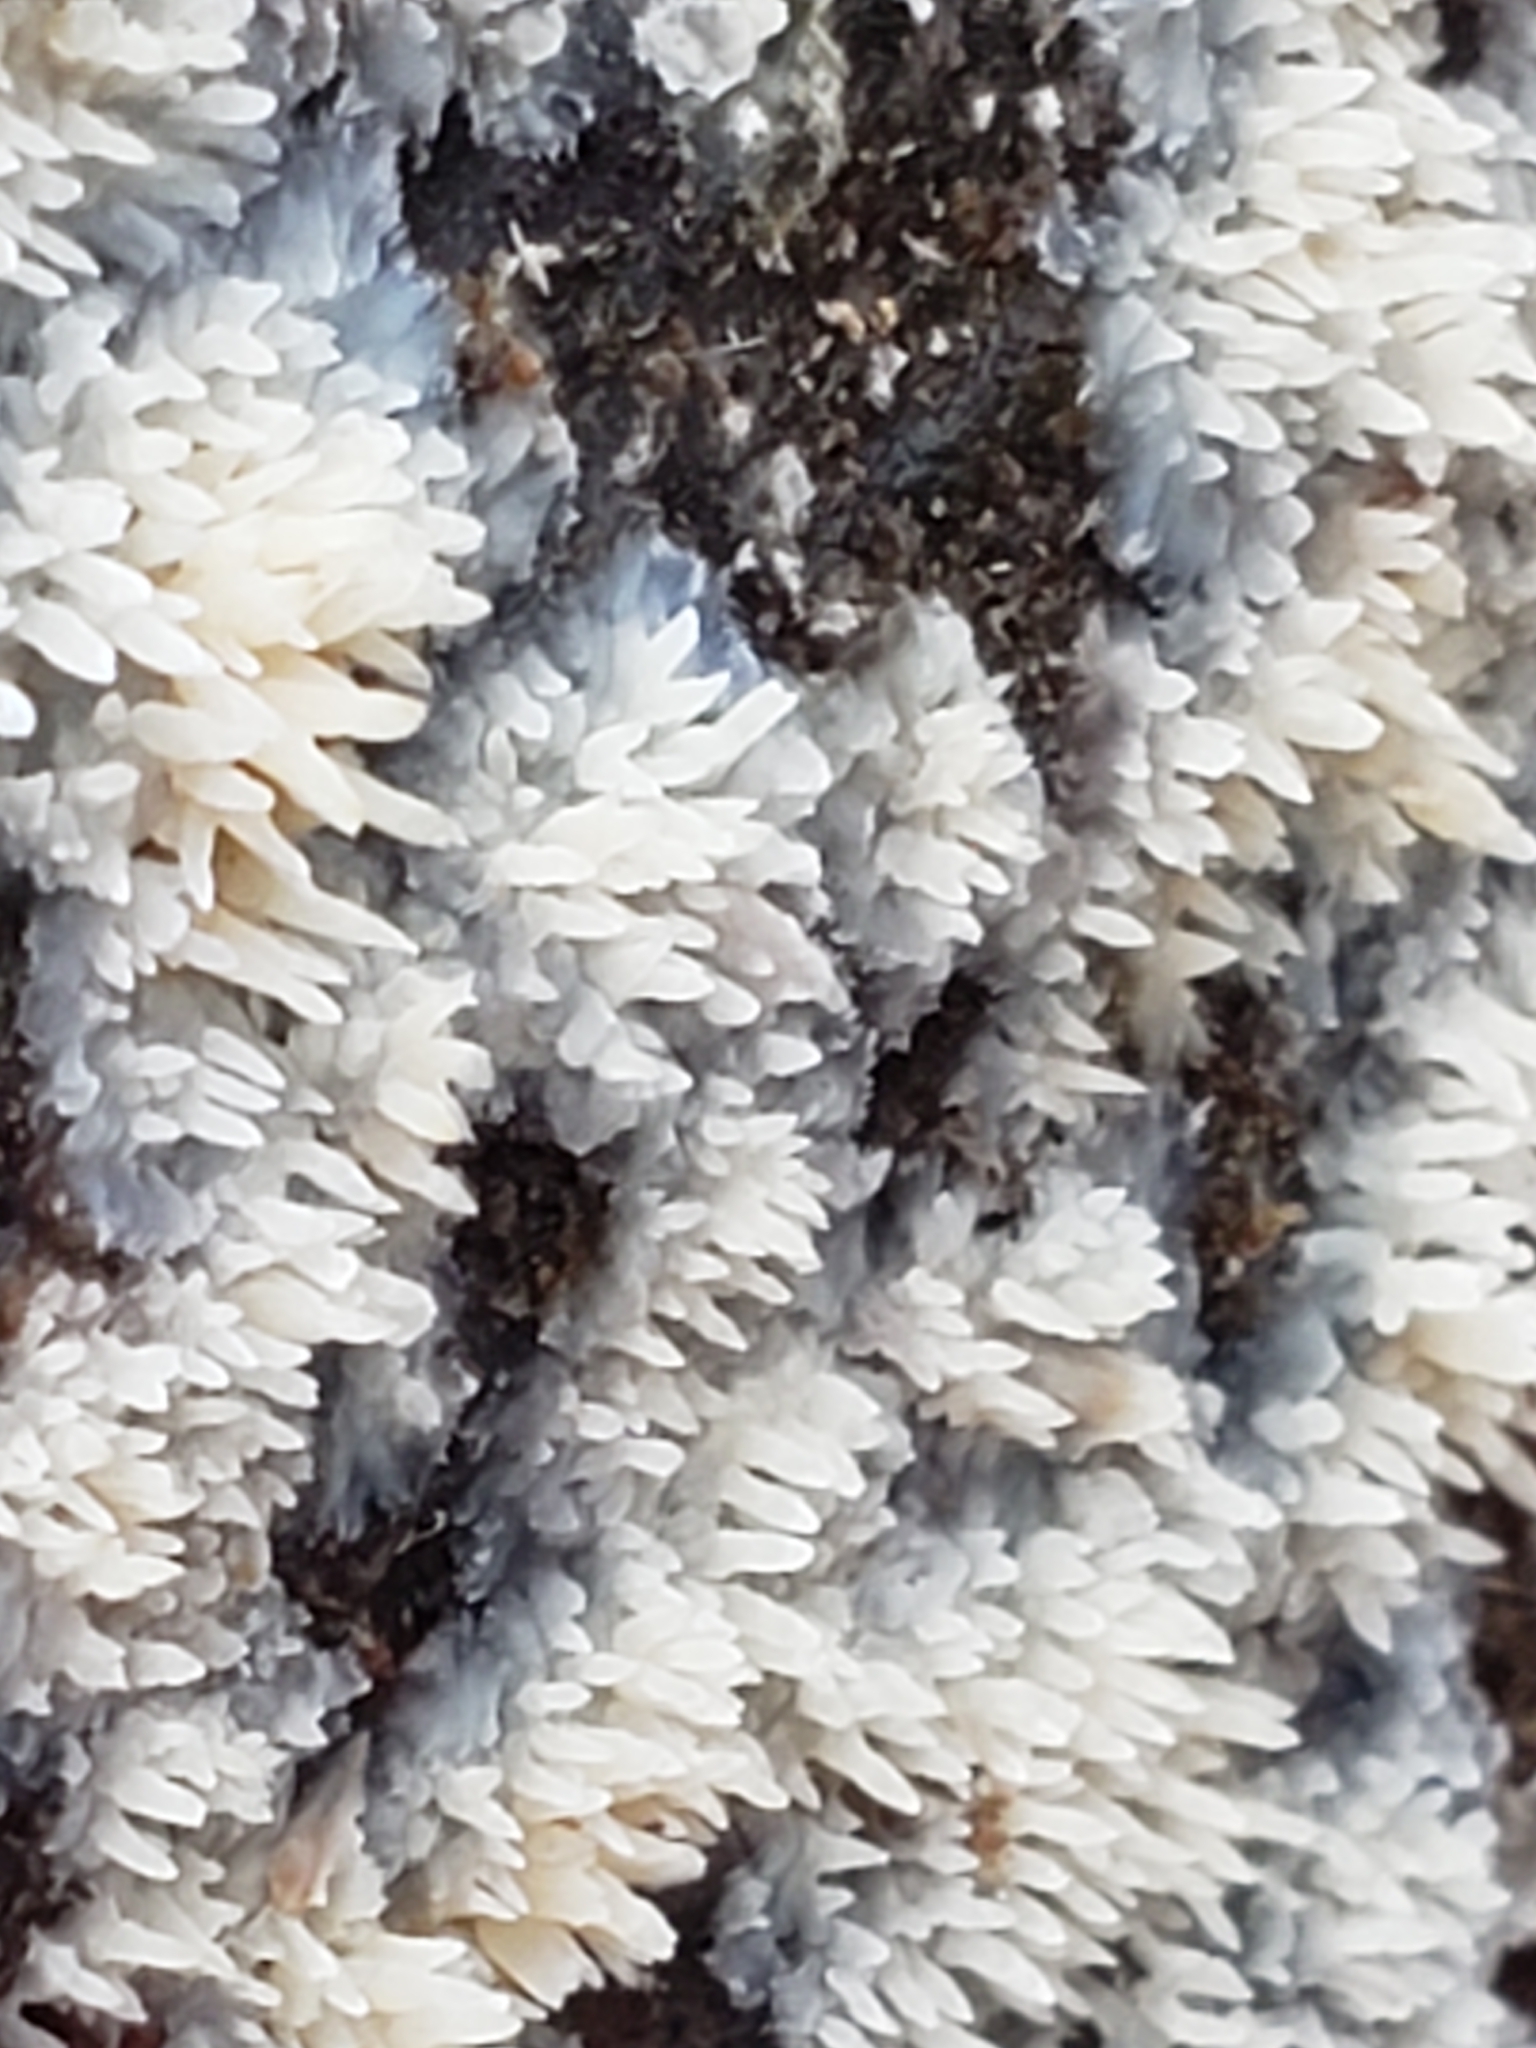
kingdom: Fungi
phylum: Basidiomycota
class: Agaricomycetes
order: Agaricales
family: Radulomycetaceae
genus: Radulomyces
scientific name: Radulomyces copelandii
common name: Asian beauty
